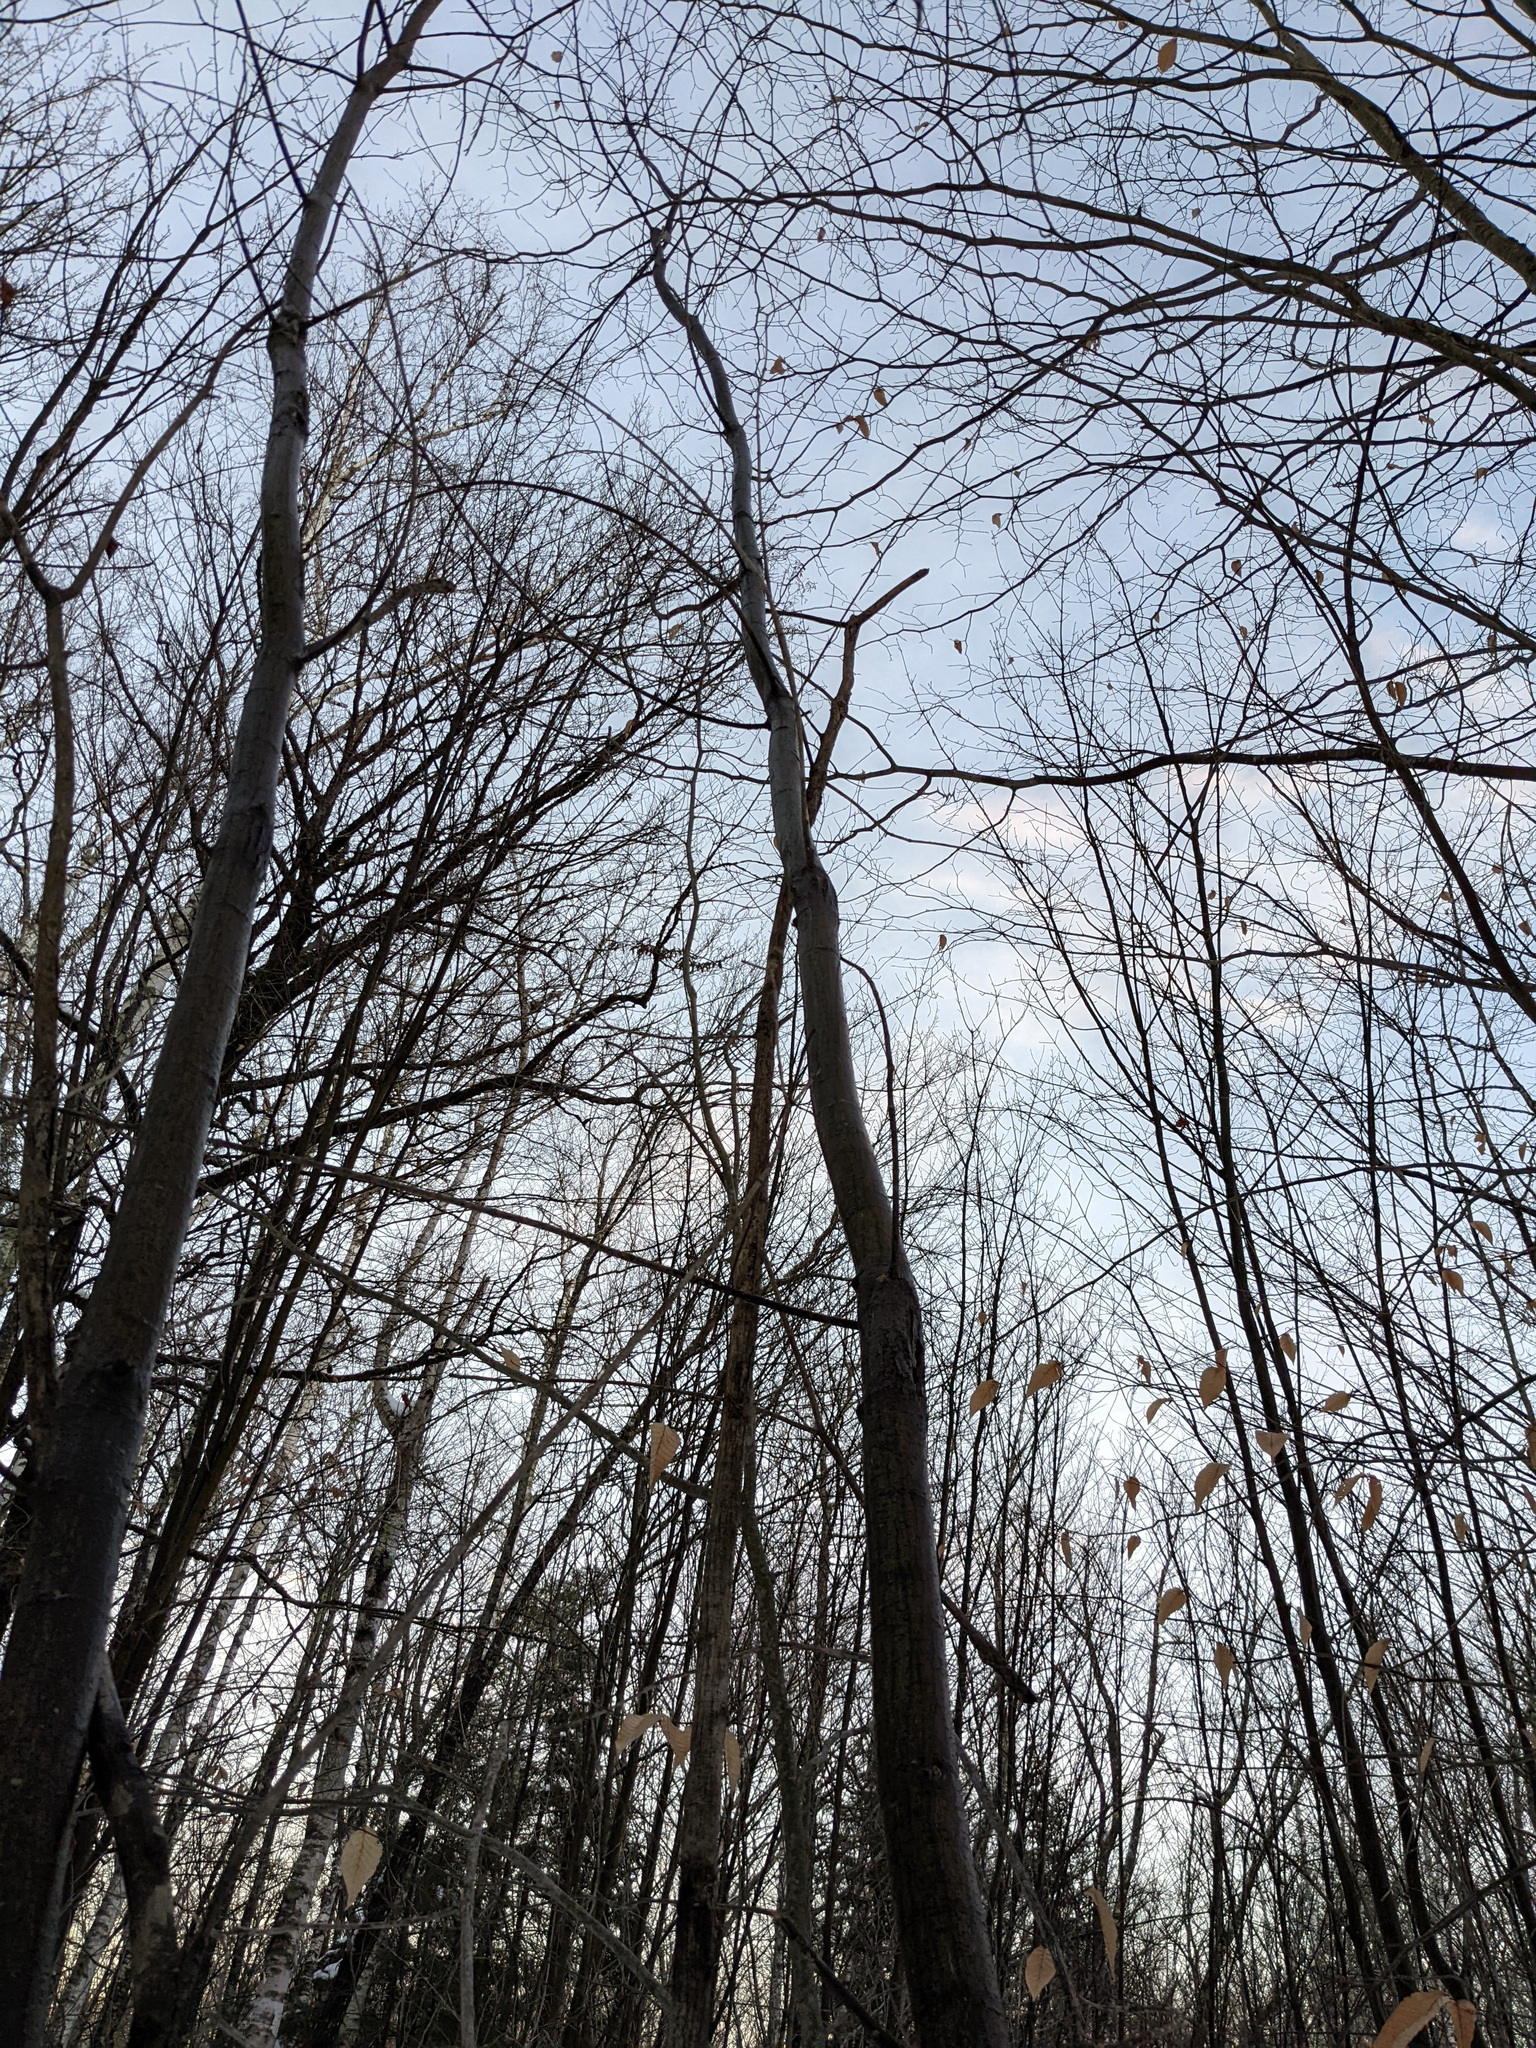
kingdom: Plantae
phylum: Tracheophyta
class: Magnoliopsida
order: Sapindales
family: Sapindaceae
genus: Acer
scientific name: Acer pensylvanicum
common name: Moosewood
